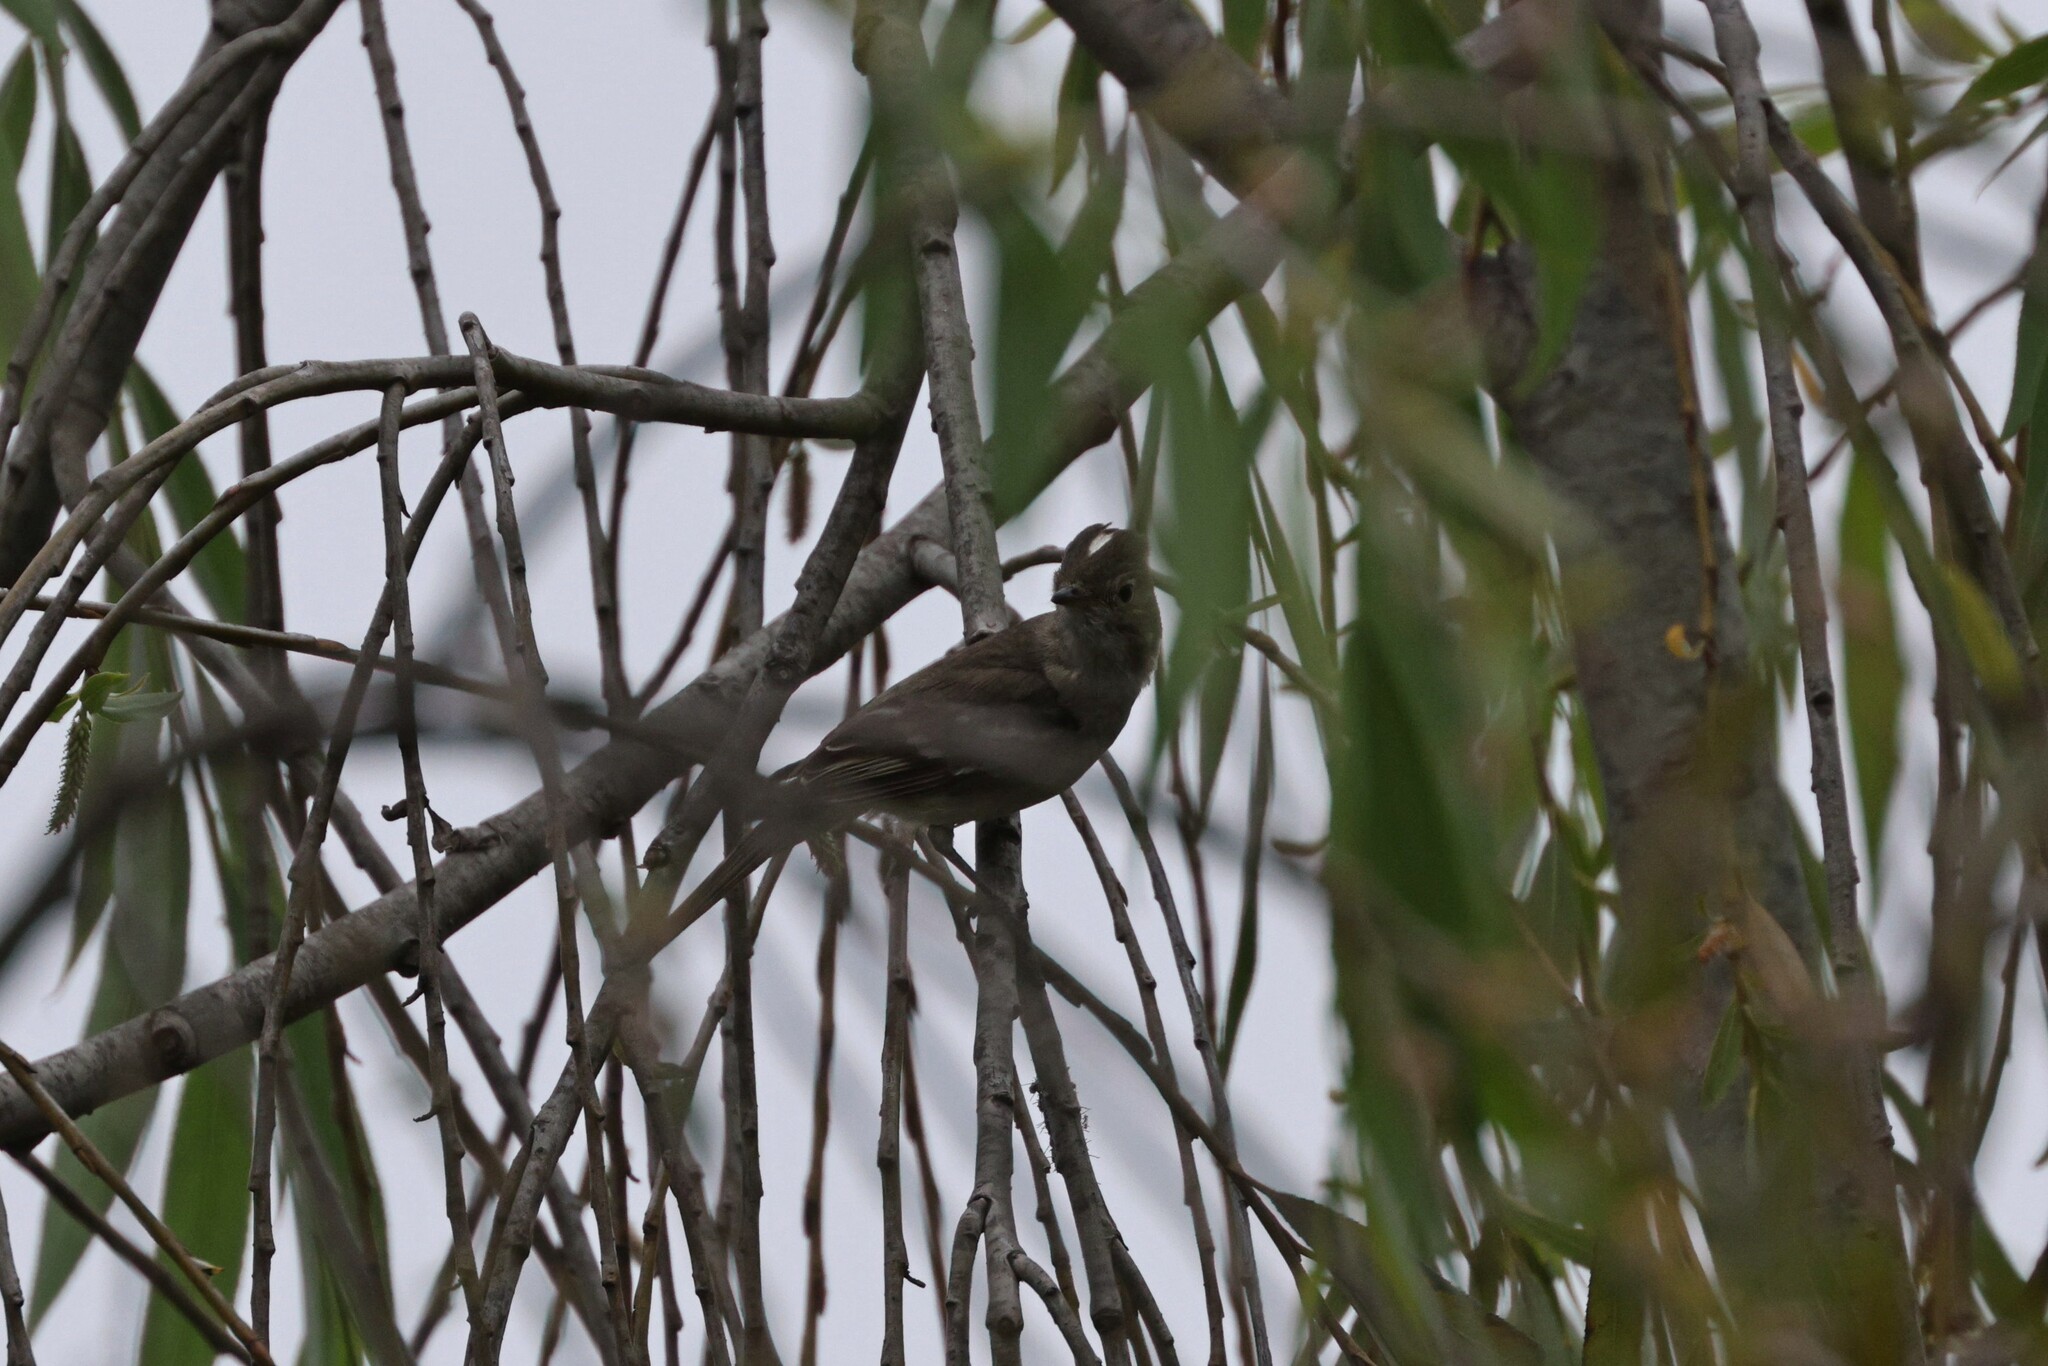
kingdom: Animalia
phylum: Chordata
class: Aves
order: Passeriformes
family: Tyrannidae
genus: Elaenia
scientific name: Elaenia albiceps
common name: White-crested elaenia
